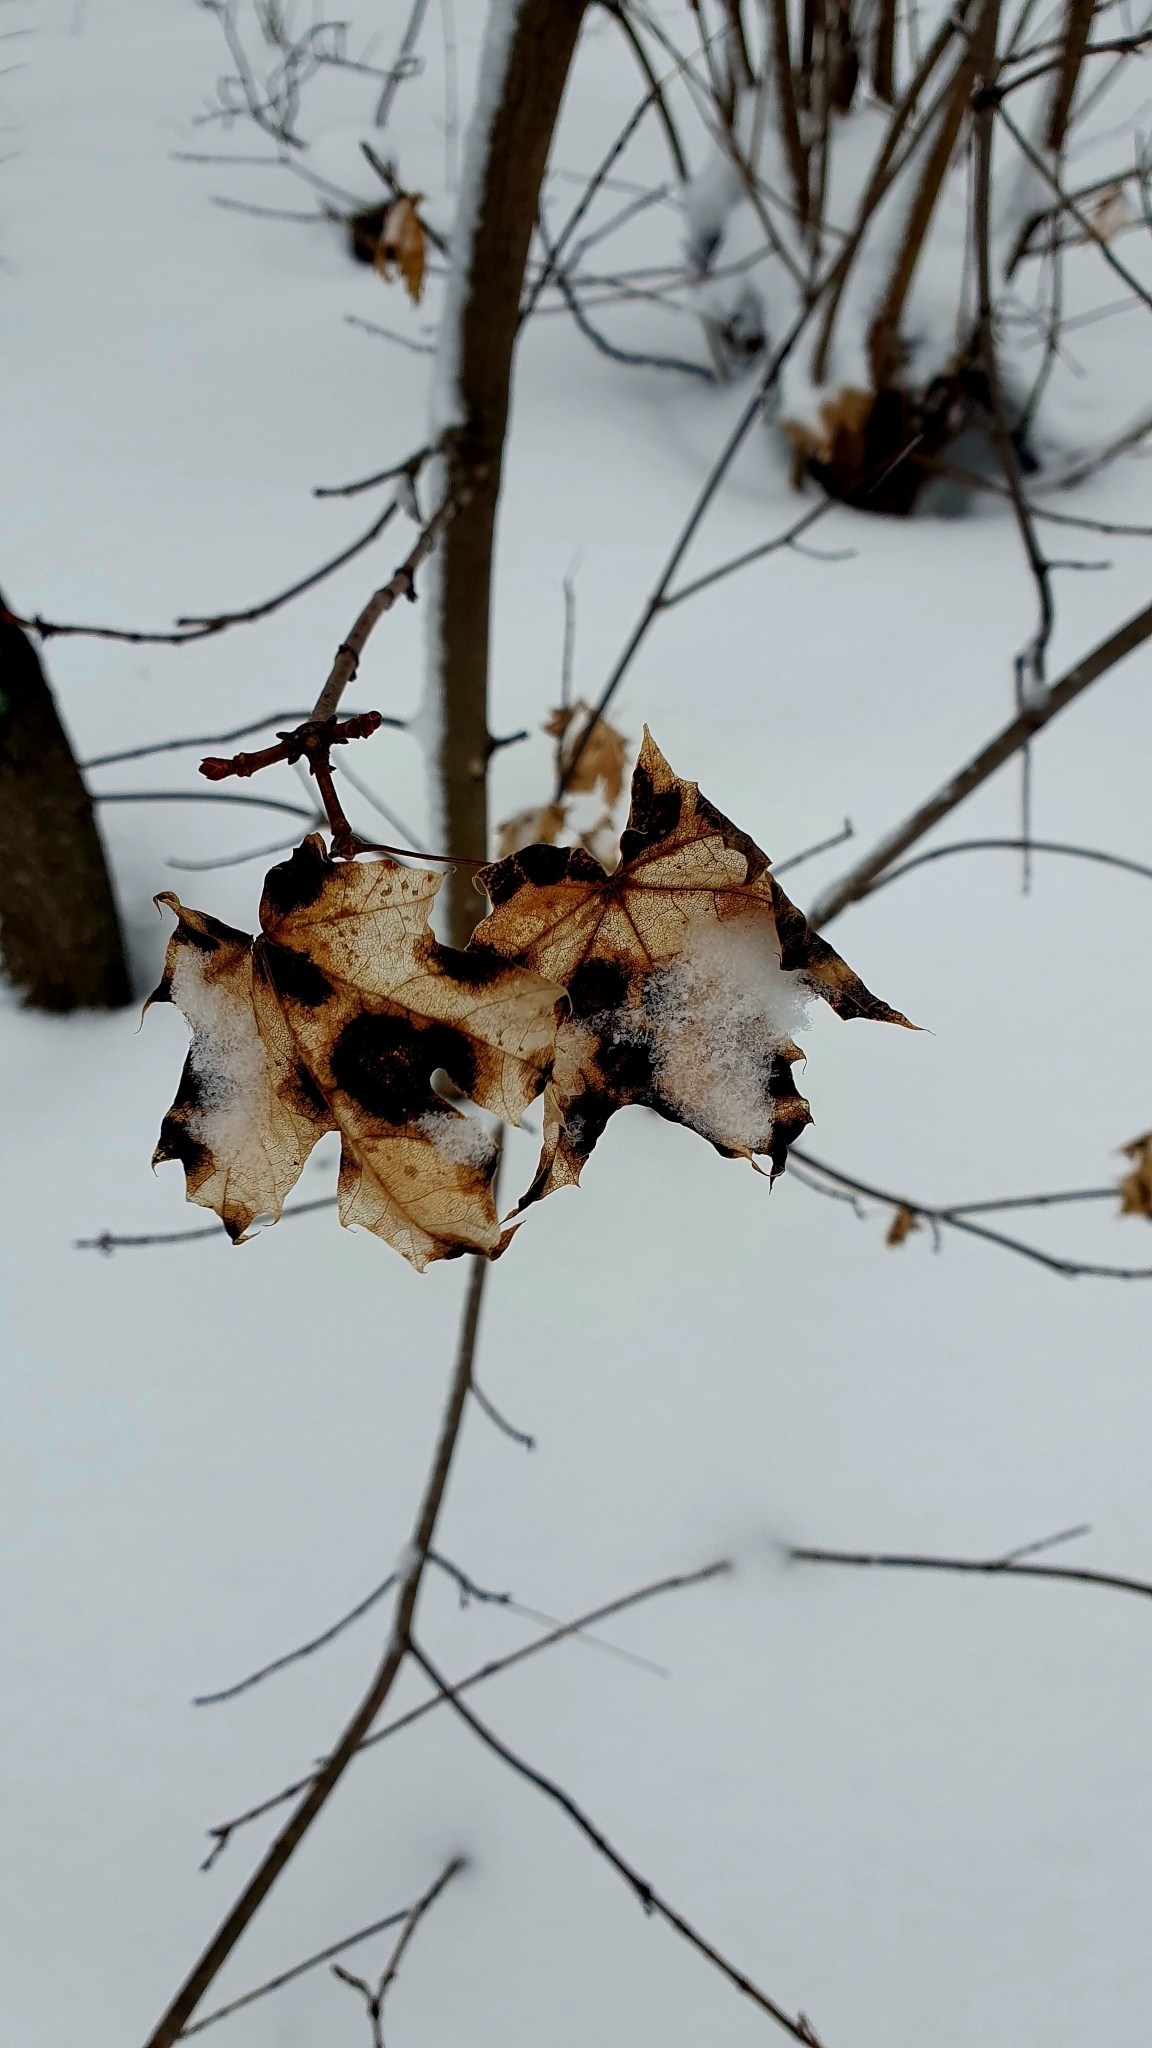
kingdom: Plantae
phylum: Tracheophyta
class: Magnoliopsida
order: Sapindales
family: Sapindaceae
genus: Acer
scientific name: Acer platanoides
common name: Norway maple
